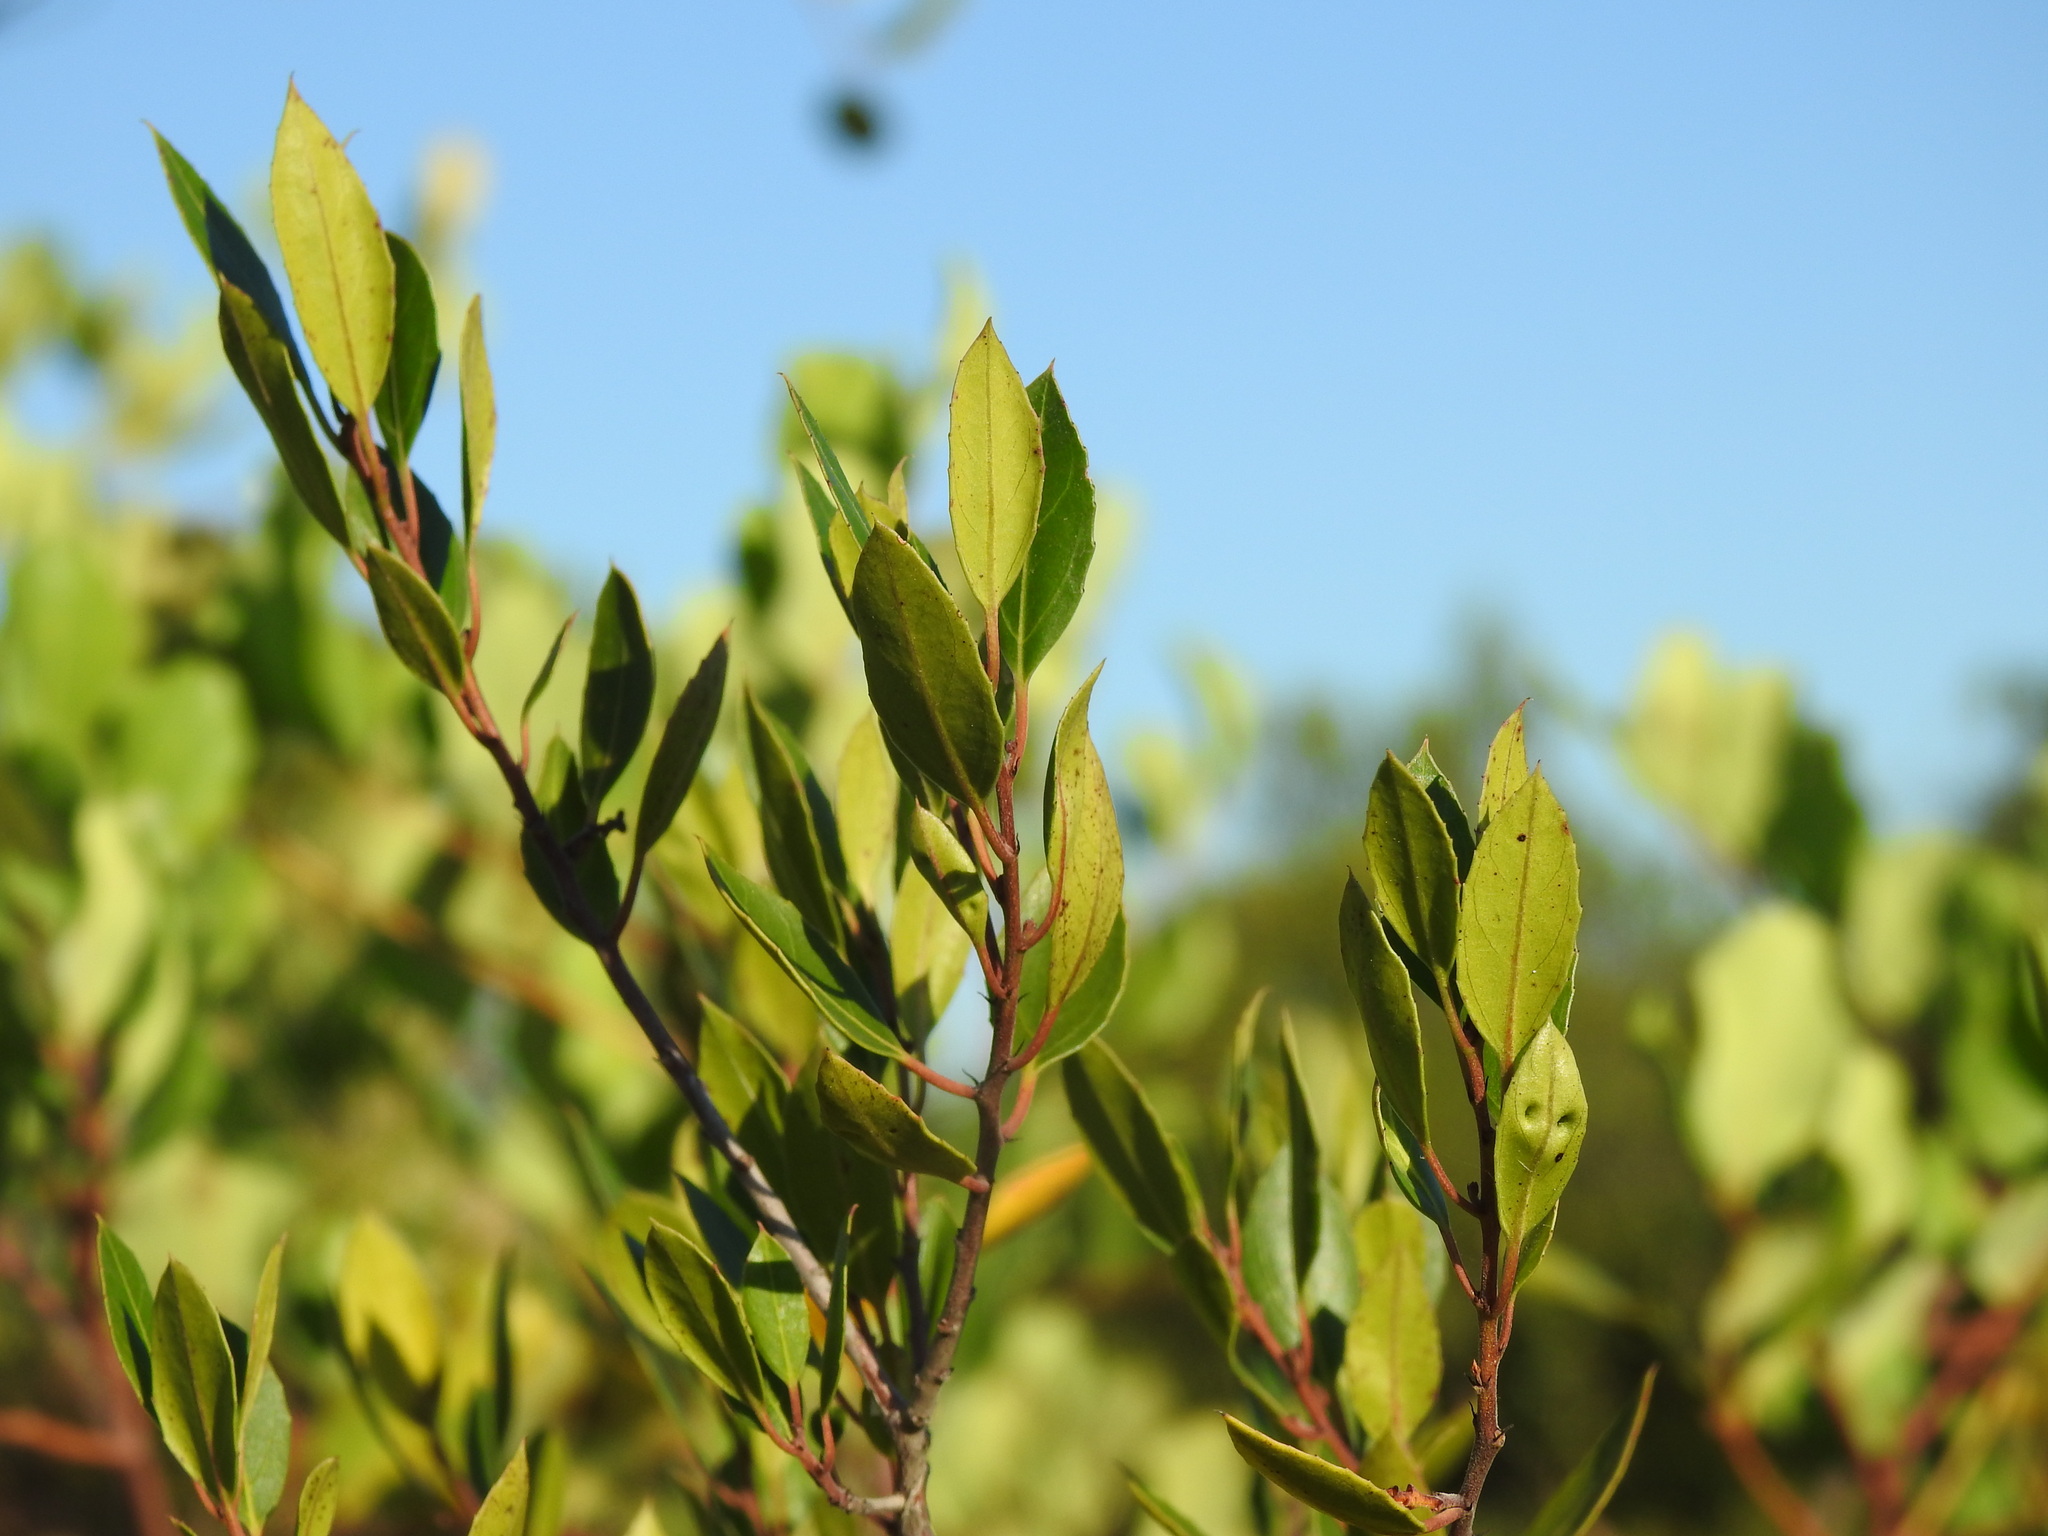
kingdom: Plantae
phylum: Tracheophyta
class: Magnoliopsida
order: Rosales
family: Rhamnaceae
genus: Rhamnus
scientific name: Rhamnus alaternus
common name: Mediterranean buckthorn
